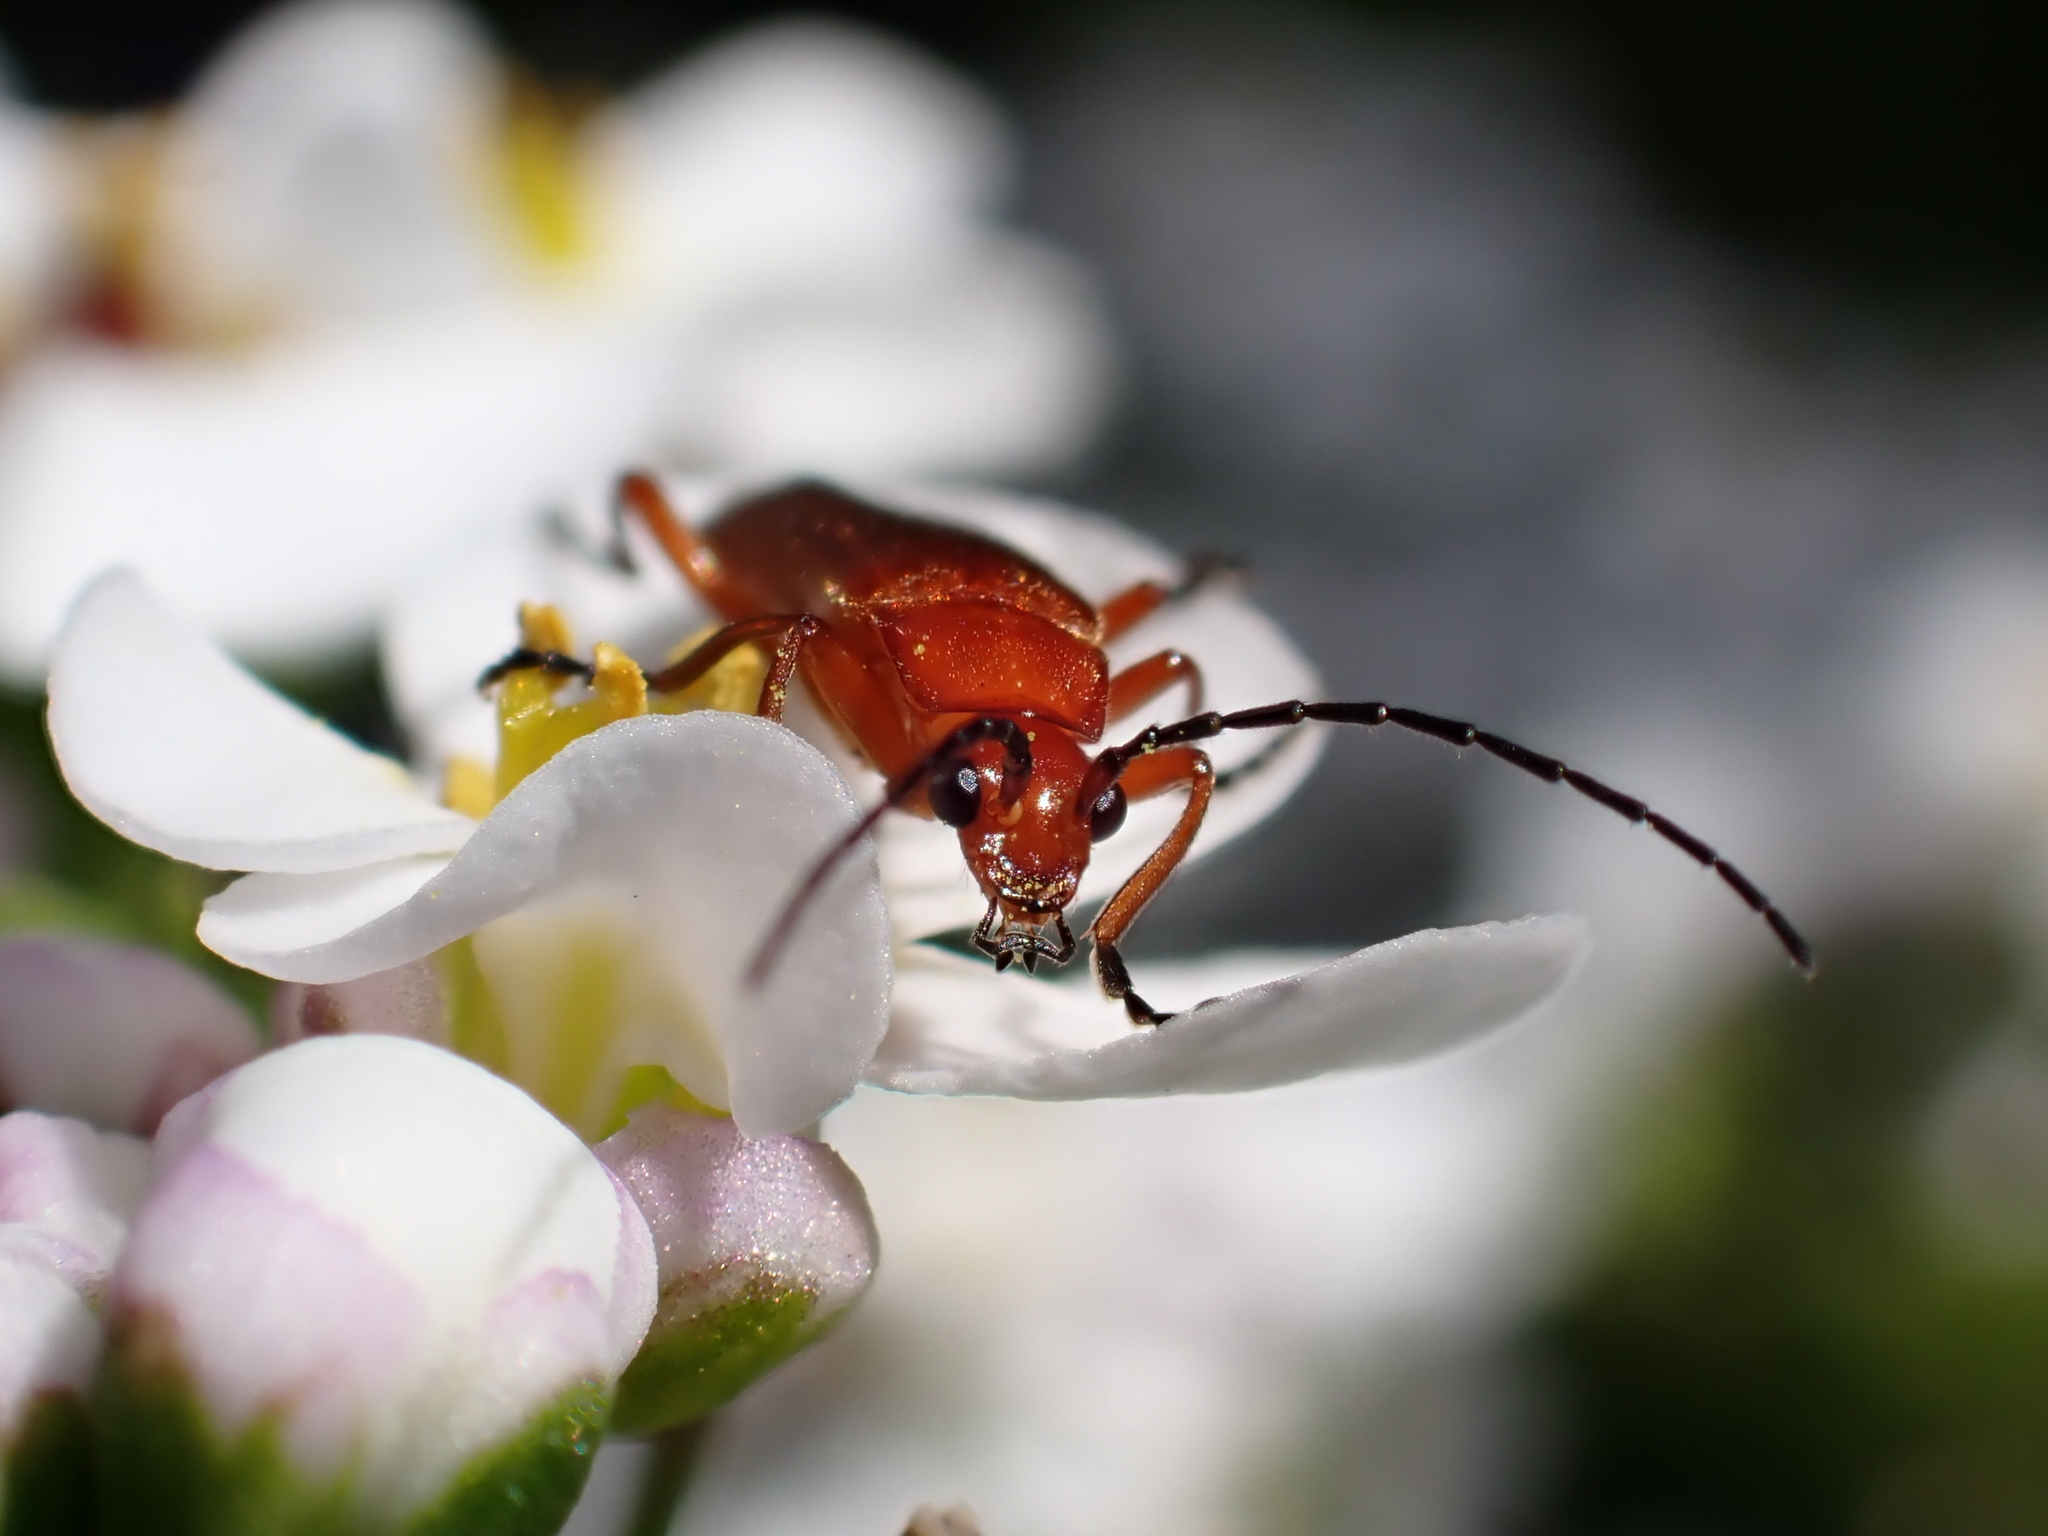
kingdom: Animalia
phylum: Arthropoda
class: Insecta
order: Coleoptera
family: Cantharidae
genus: Rhagonycha
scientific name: Rhagonycha fulva
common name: Common red soldier beetle
